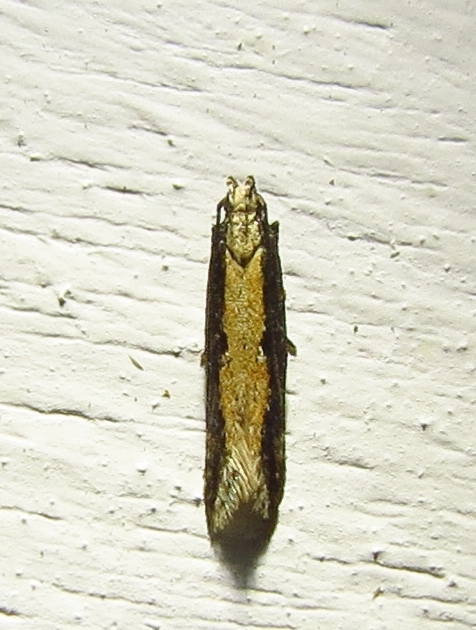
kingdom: Animalia
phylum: Arthropoda
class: Insecta
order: Lepidoptera
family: Gelechiidae
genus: Aristotelia
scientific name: Aristotelia corallina
